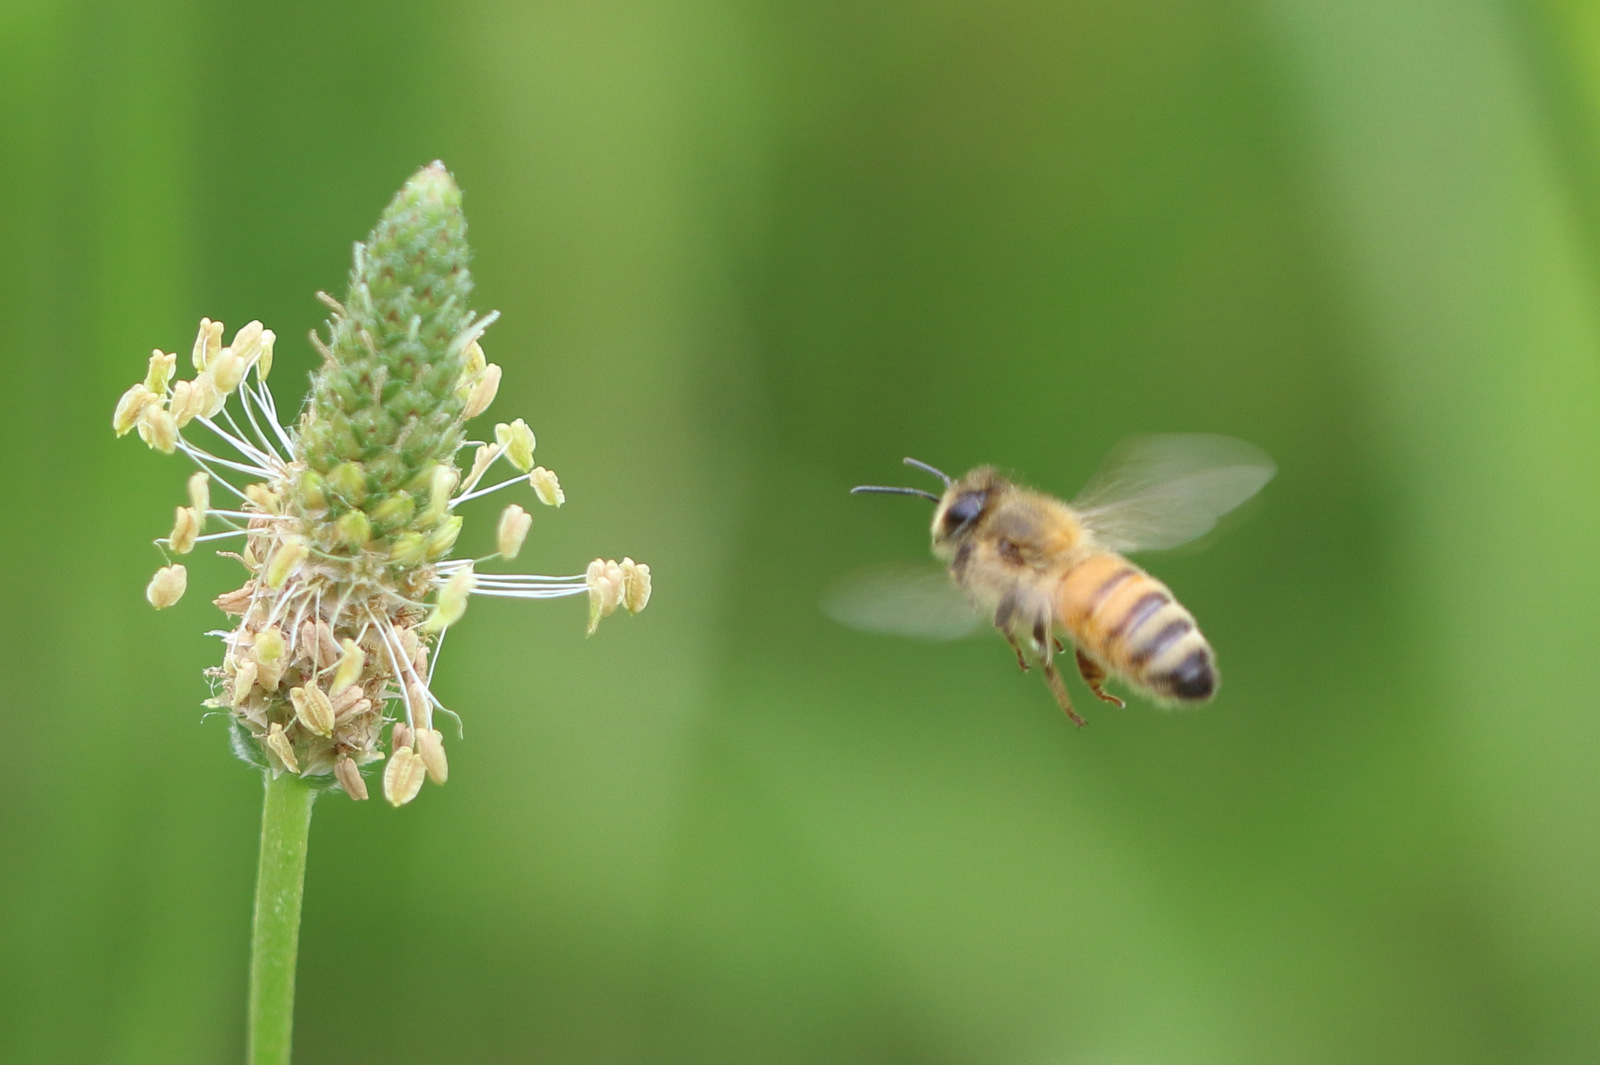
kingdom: Animalia
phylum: Arthropoda
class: Insecta
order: Hymenoptera
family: Apidae
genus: Apis
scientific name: Apis mellifera
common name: Honey bee
